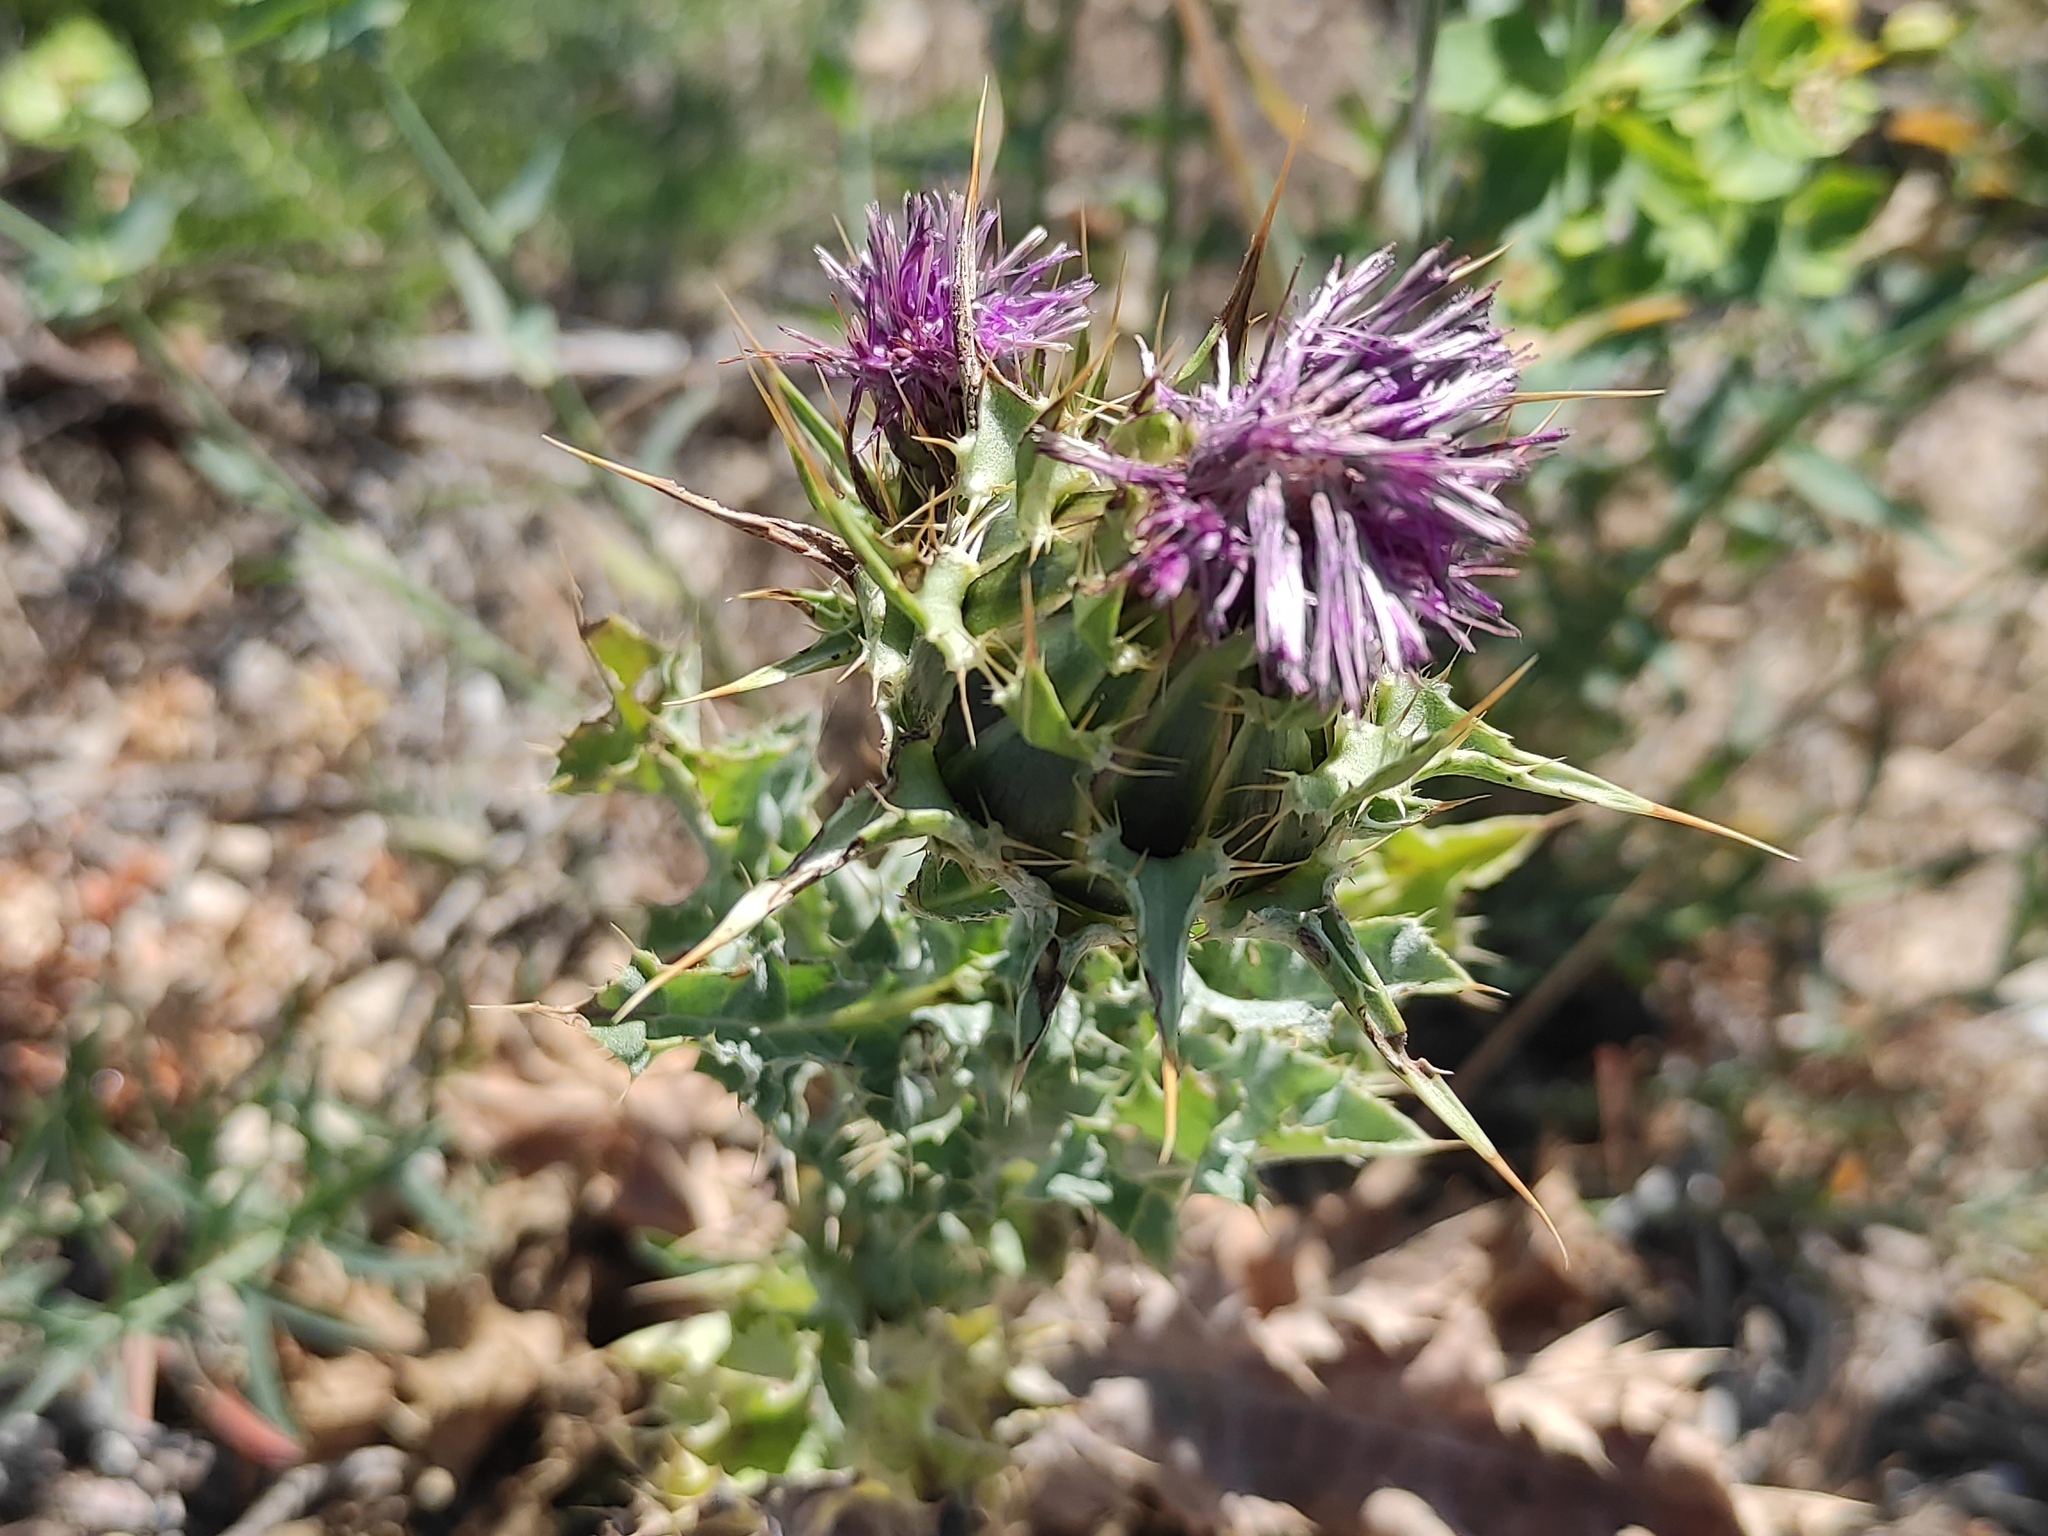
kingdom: Plantae
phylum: Tracheophyta
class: Magnoliopsida
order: Asterales
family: Asteraceae
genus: Silybum
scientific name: Silybum marianum
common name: Milk thistle
